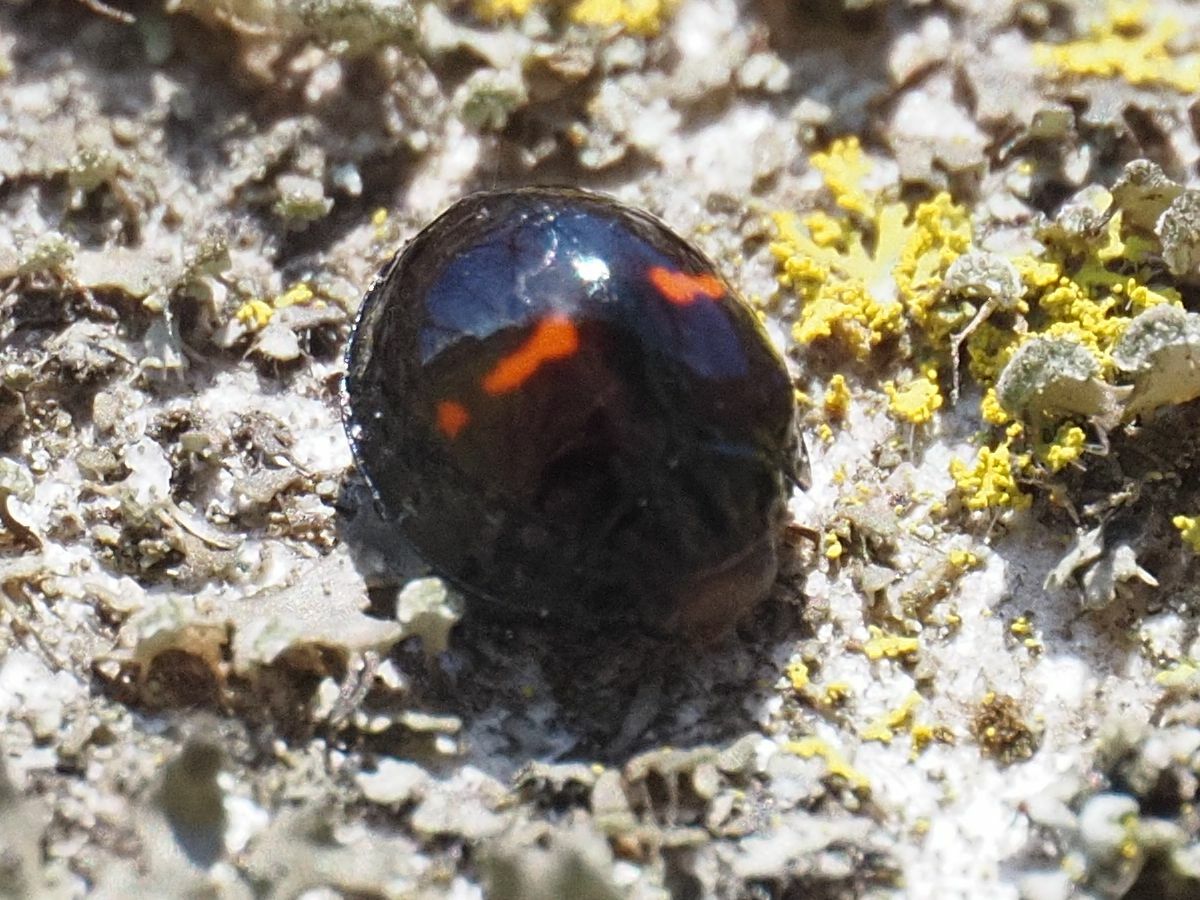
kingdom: Animalia
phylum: Arthropoda
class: Insecta
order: Coleoptera
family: Coccinellidae
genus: Chilocorus
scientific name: Chilocorus bipustulatus
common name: Heather ladybird
